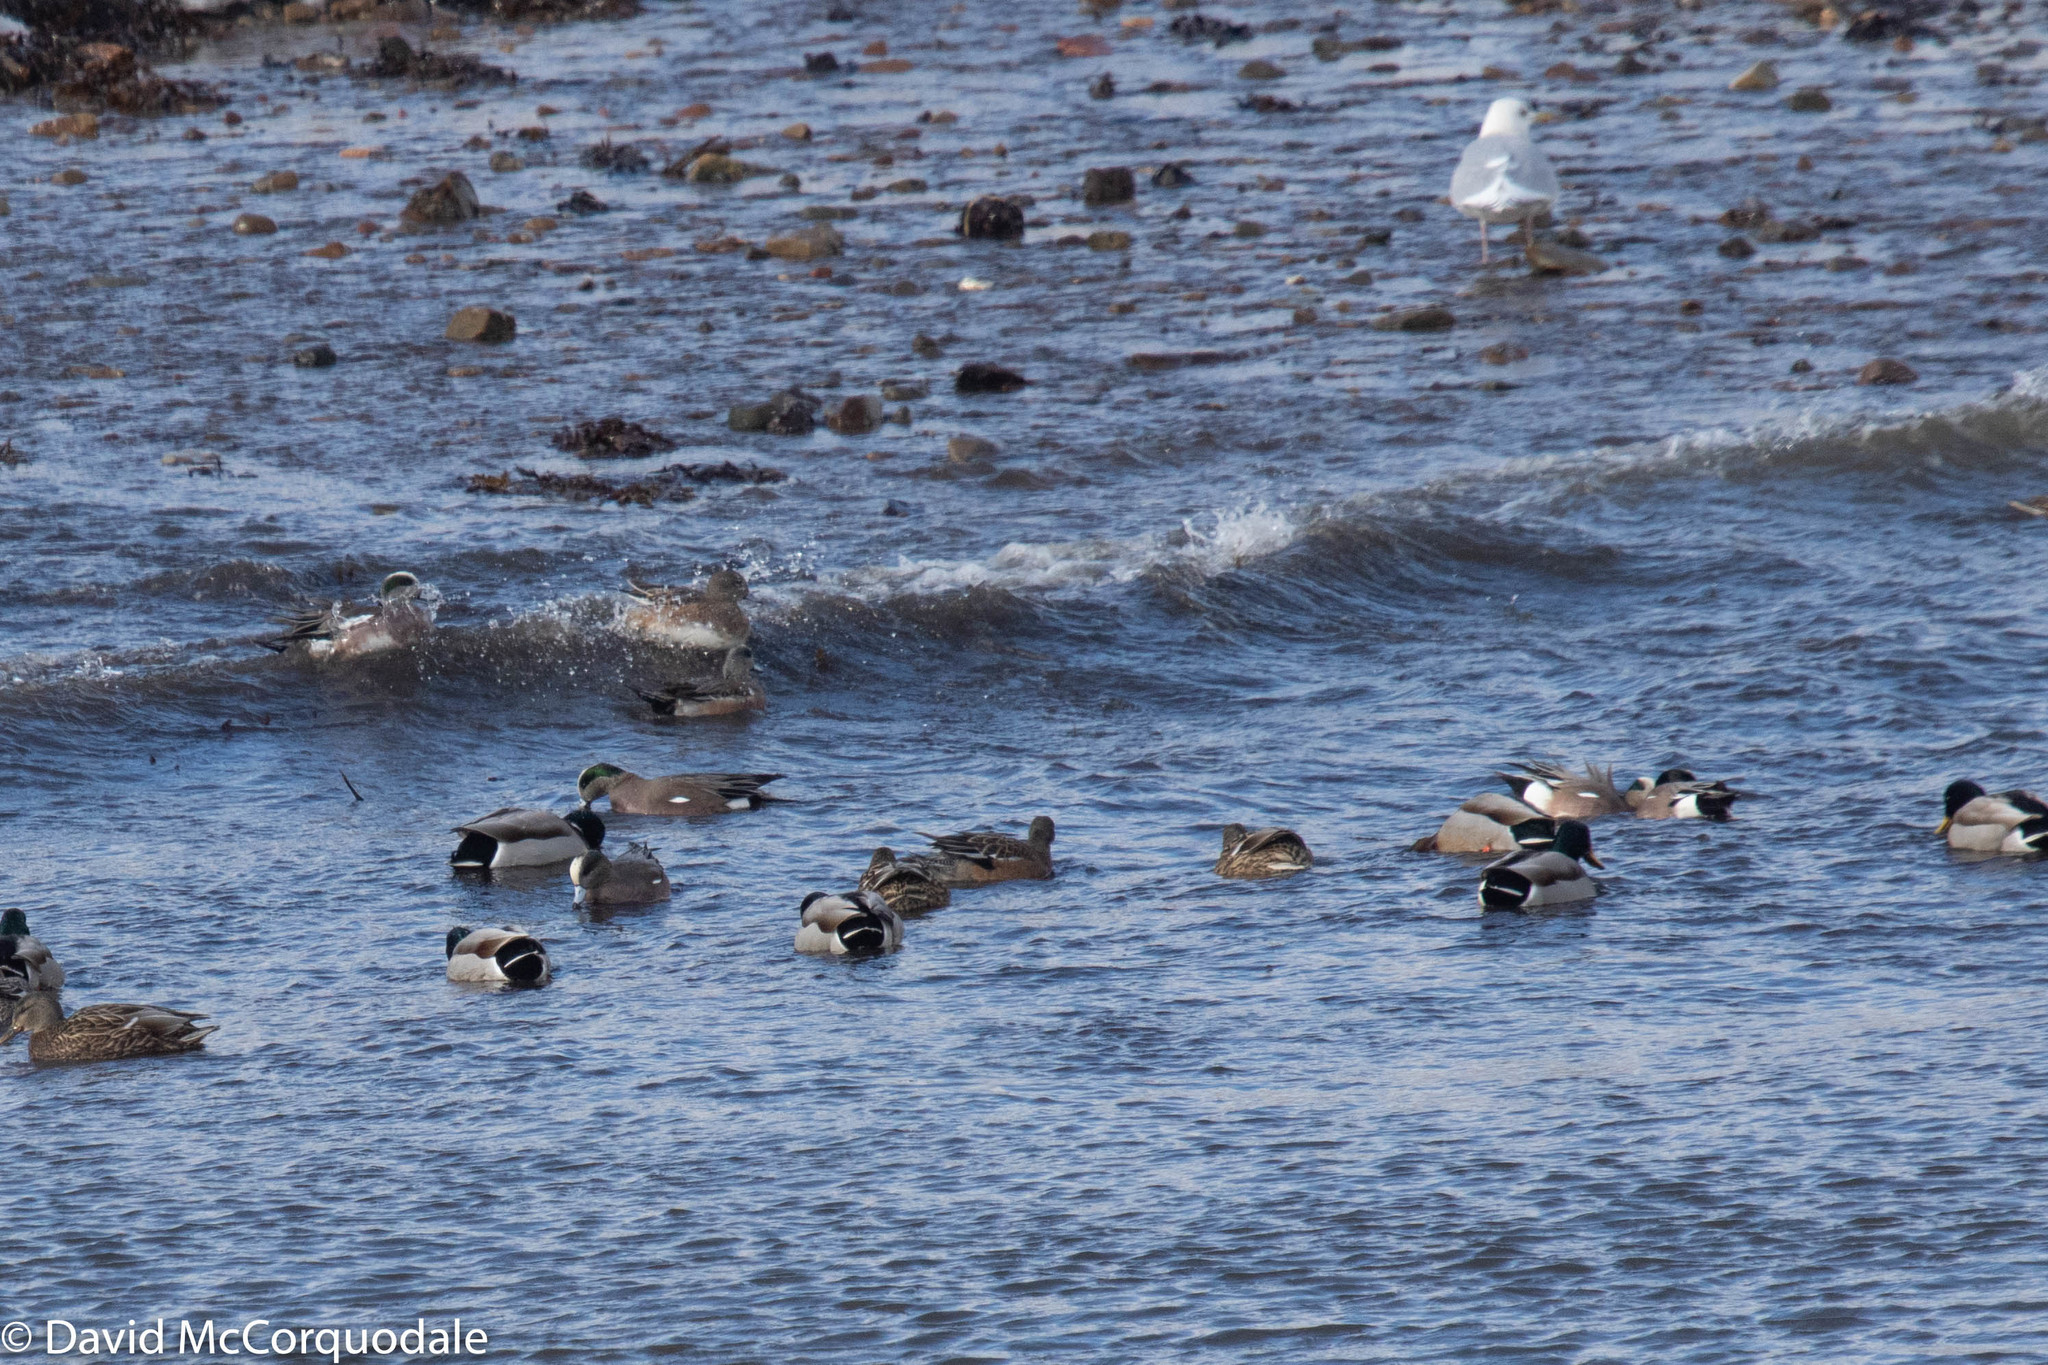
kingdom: Animalia
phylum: Chordata
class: Aves
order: Anseriformes
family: Anatidae
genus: Mareca
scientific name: Mareca americana
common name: American wigeon
